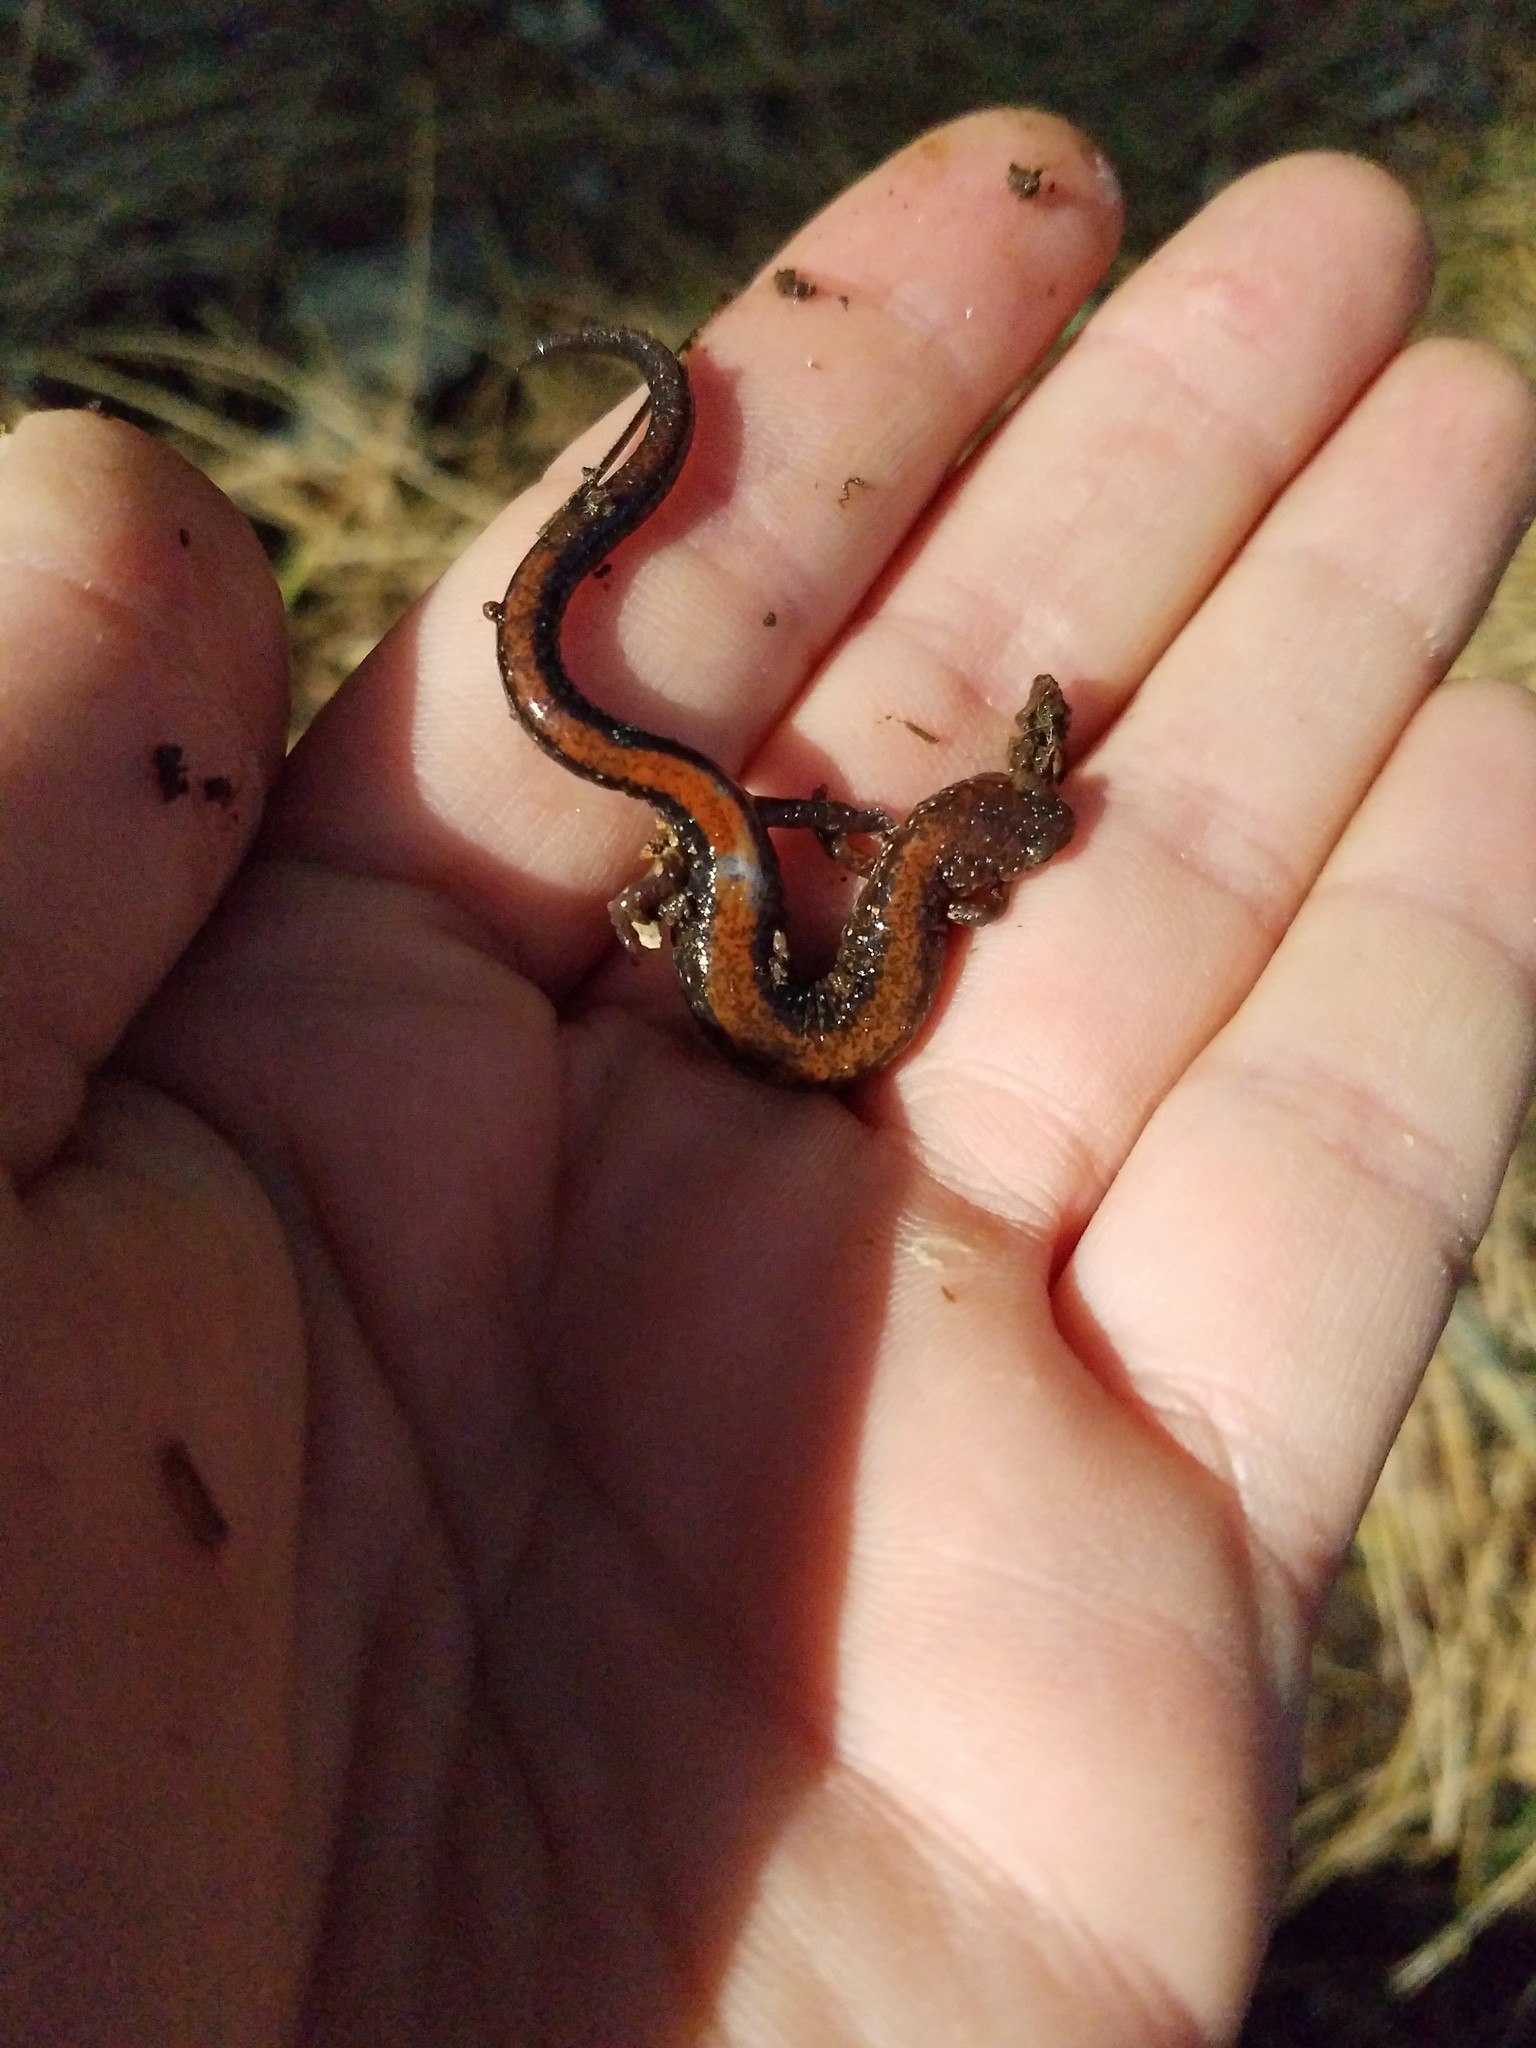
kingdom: Animalia
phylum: Chordata
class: Amphibia
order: Caudata
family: Plethodontidae
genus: Plethodon
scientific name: Plethodon cinereus
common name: Redback salamander
